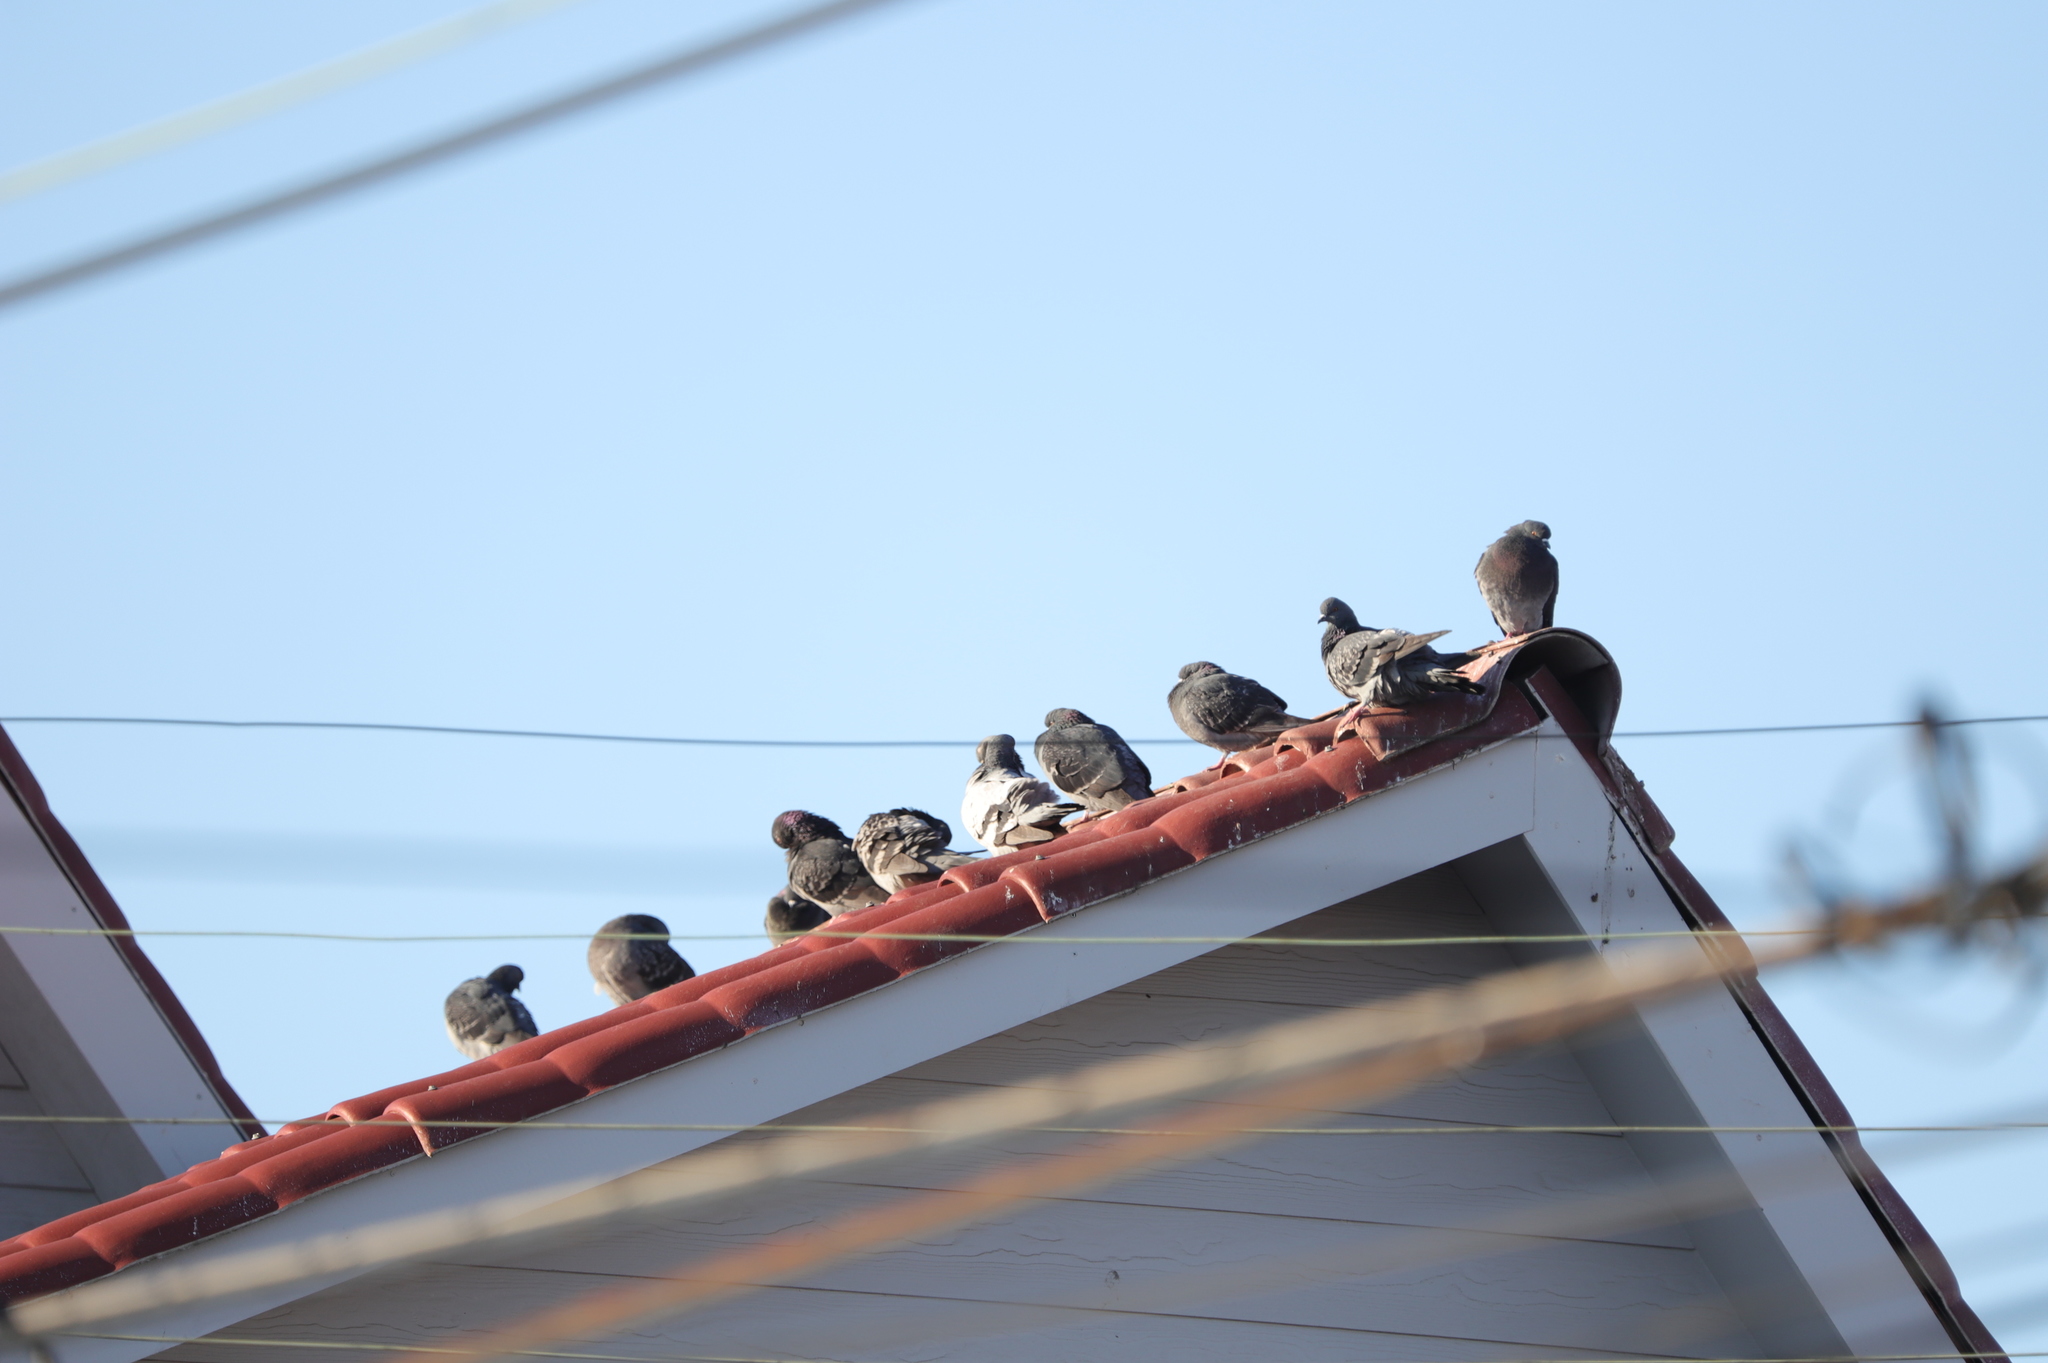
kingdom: Animalia
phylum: Chordata
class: Aves
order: Columbiformes
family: Columbidae
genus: Columba
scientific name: Columba livia
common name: Rock pigeon
